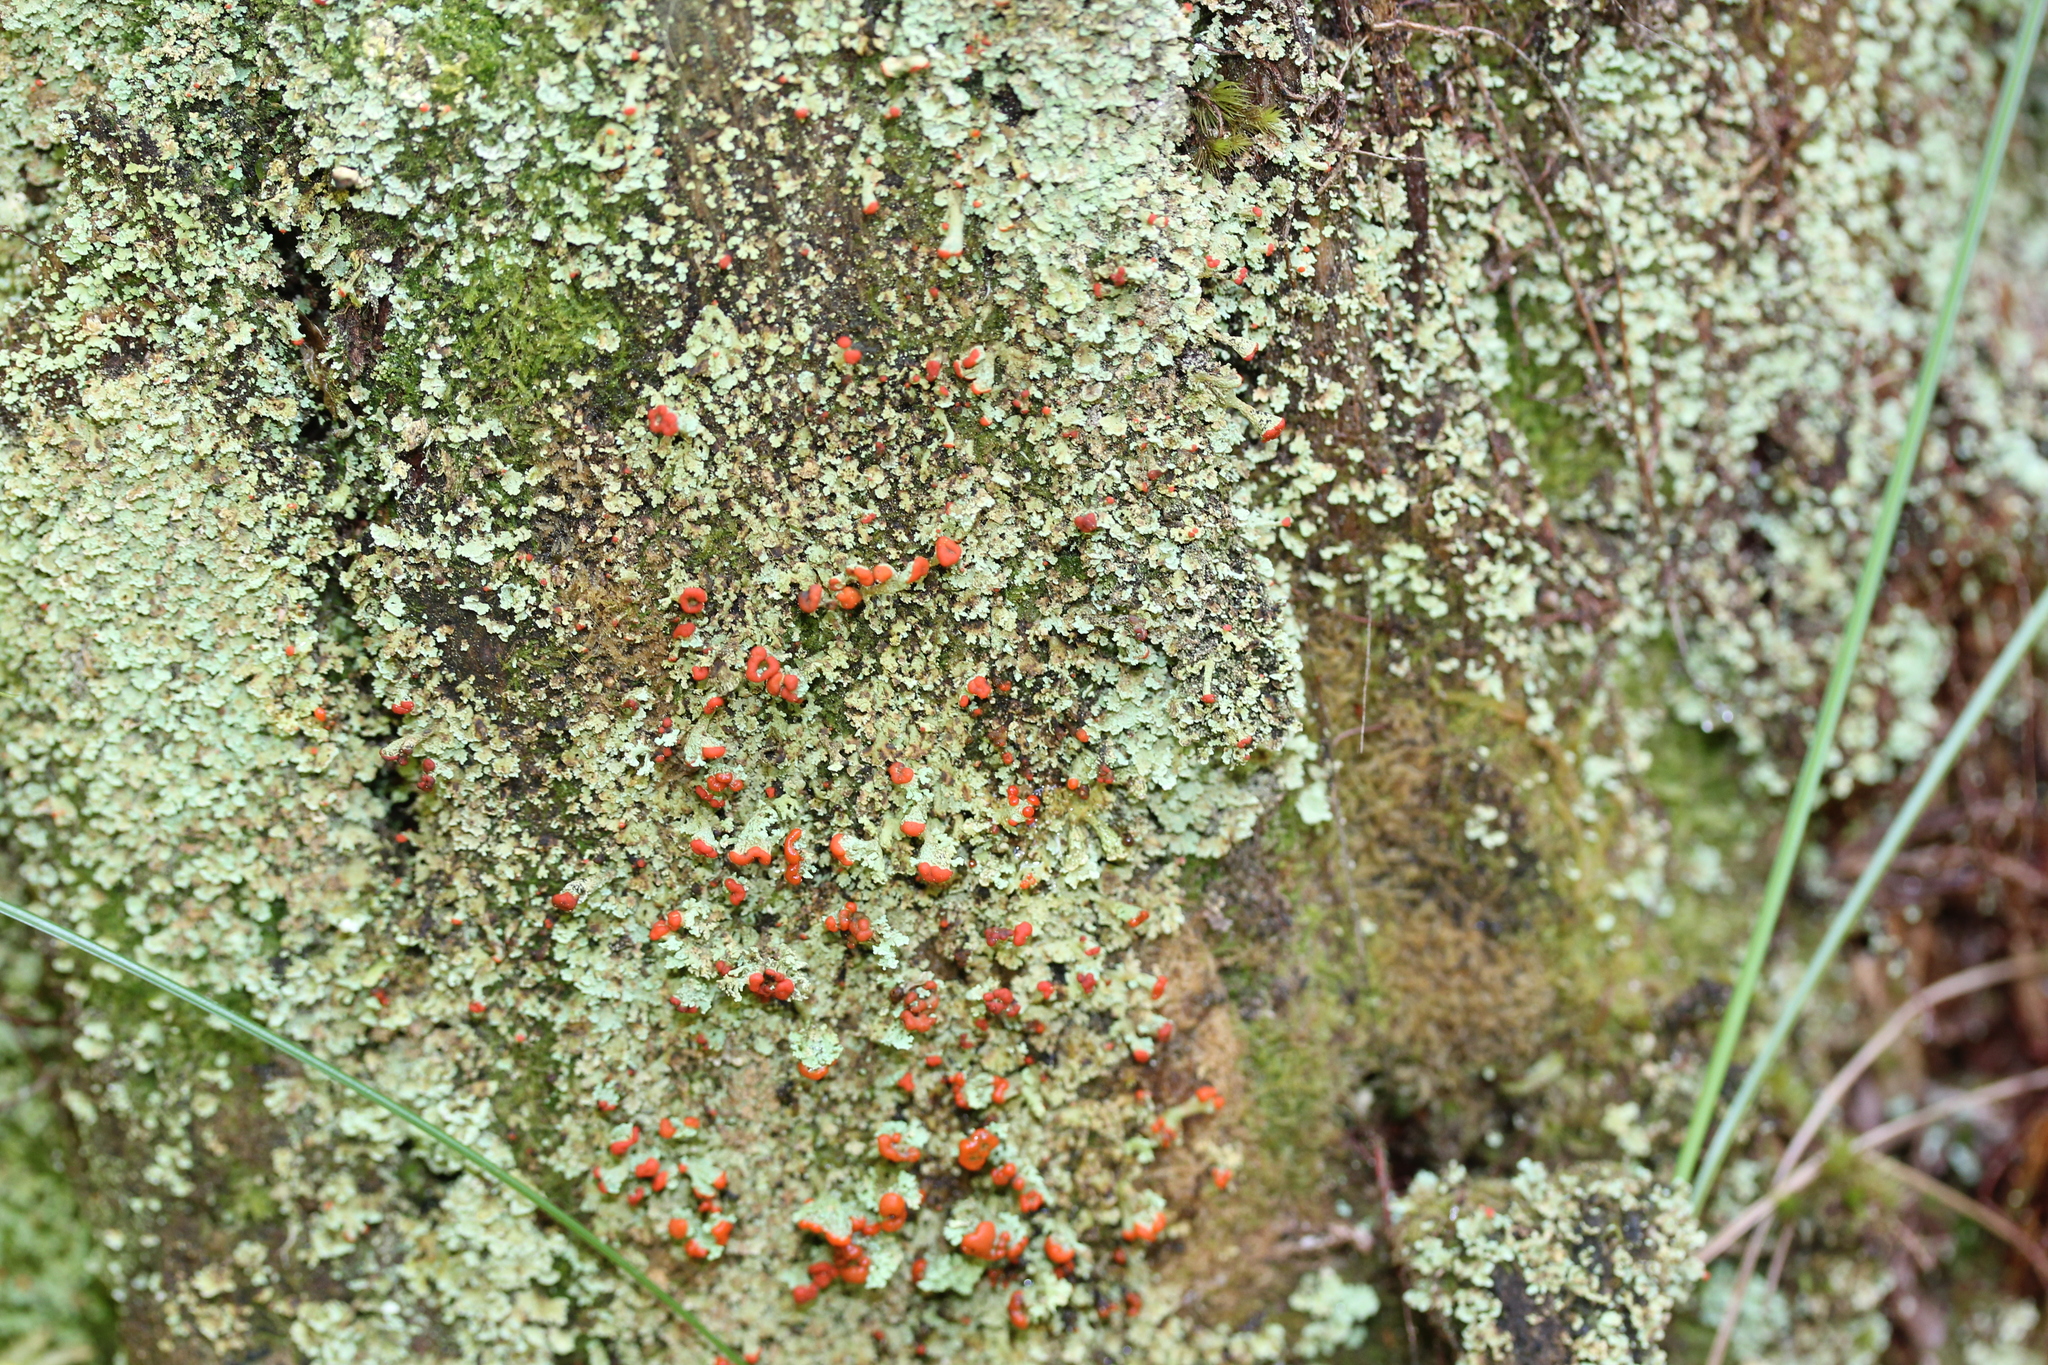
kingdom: Fungi
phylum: Ascomycota
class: Lecanoromycetes
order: Lecanorales
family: Cladoniaceae
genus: Cladonia
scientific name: Cladonia incrassata
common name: Powder-foot british soldiers
